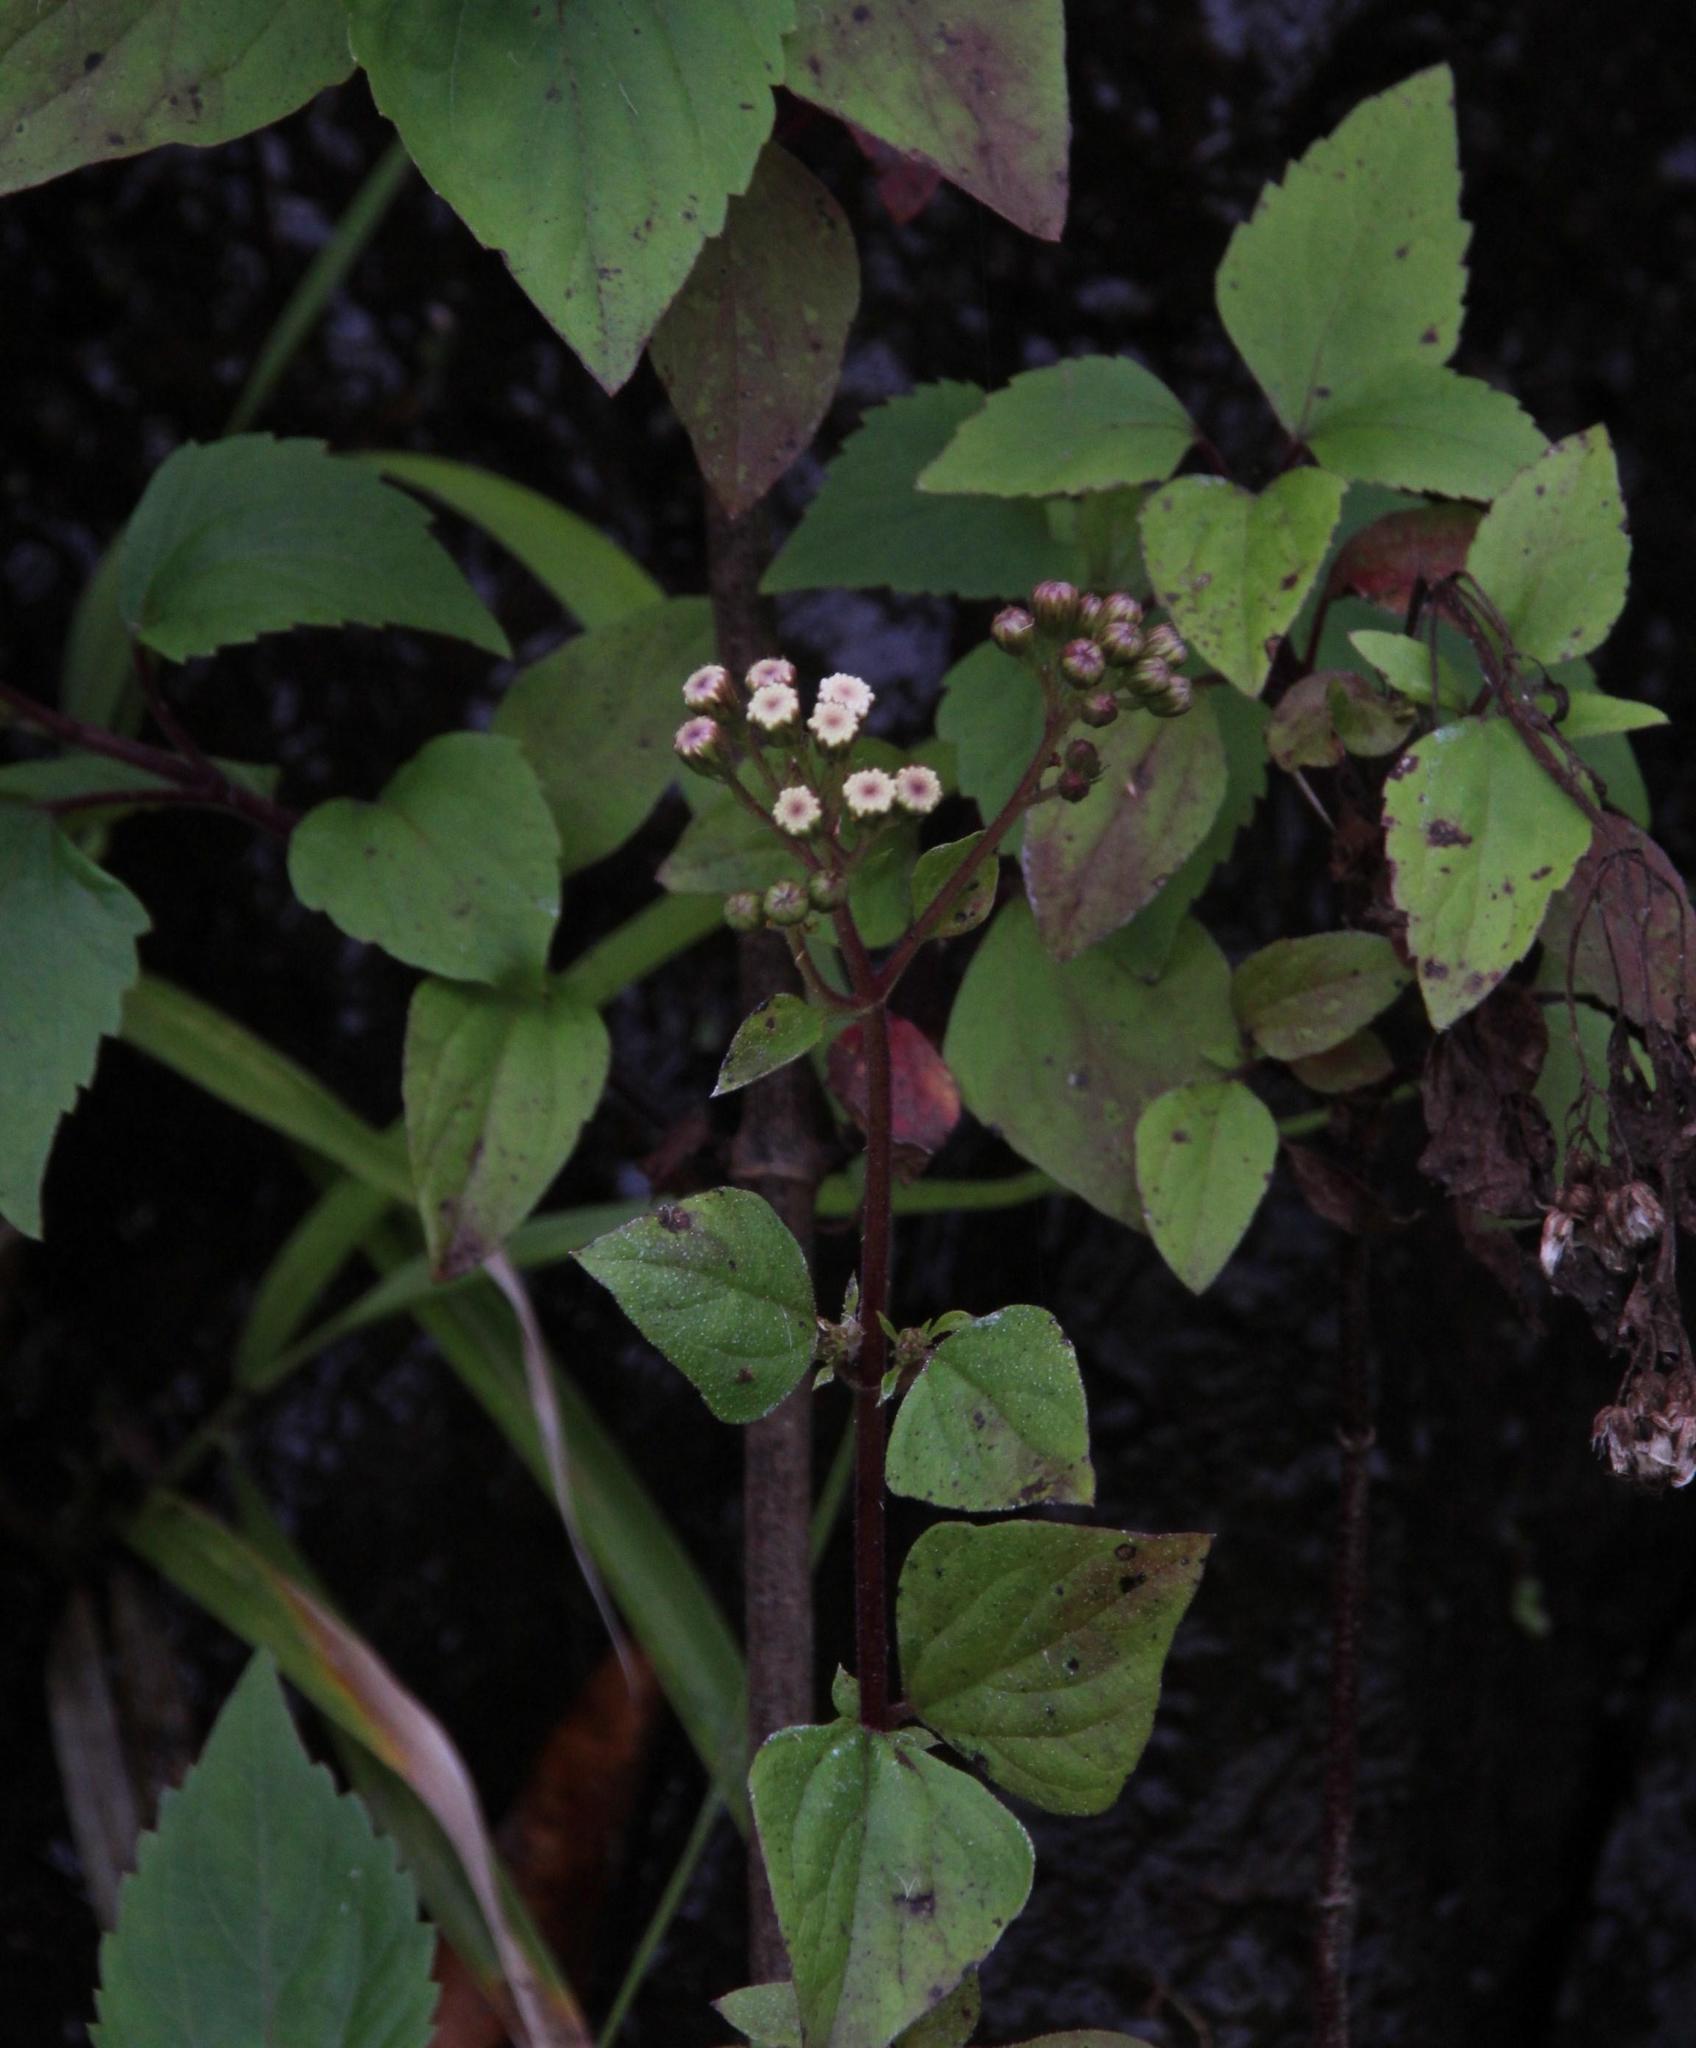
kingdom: Plantae
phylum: Tracheophyta
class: Magnoliopsida
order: Asterales
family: Asteraceae
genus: Ageratina
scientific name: Ageratina adenophora
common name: Sticky snakeroot
